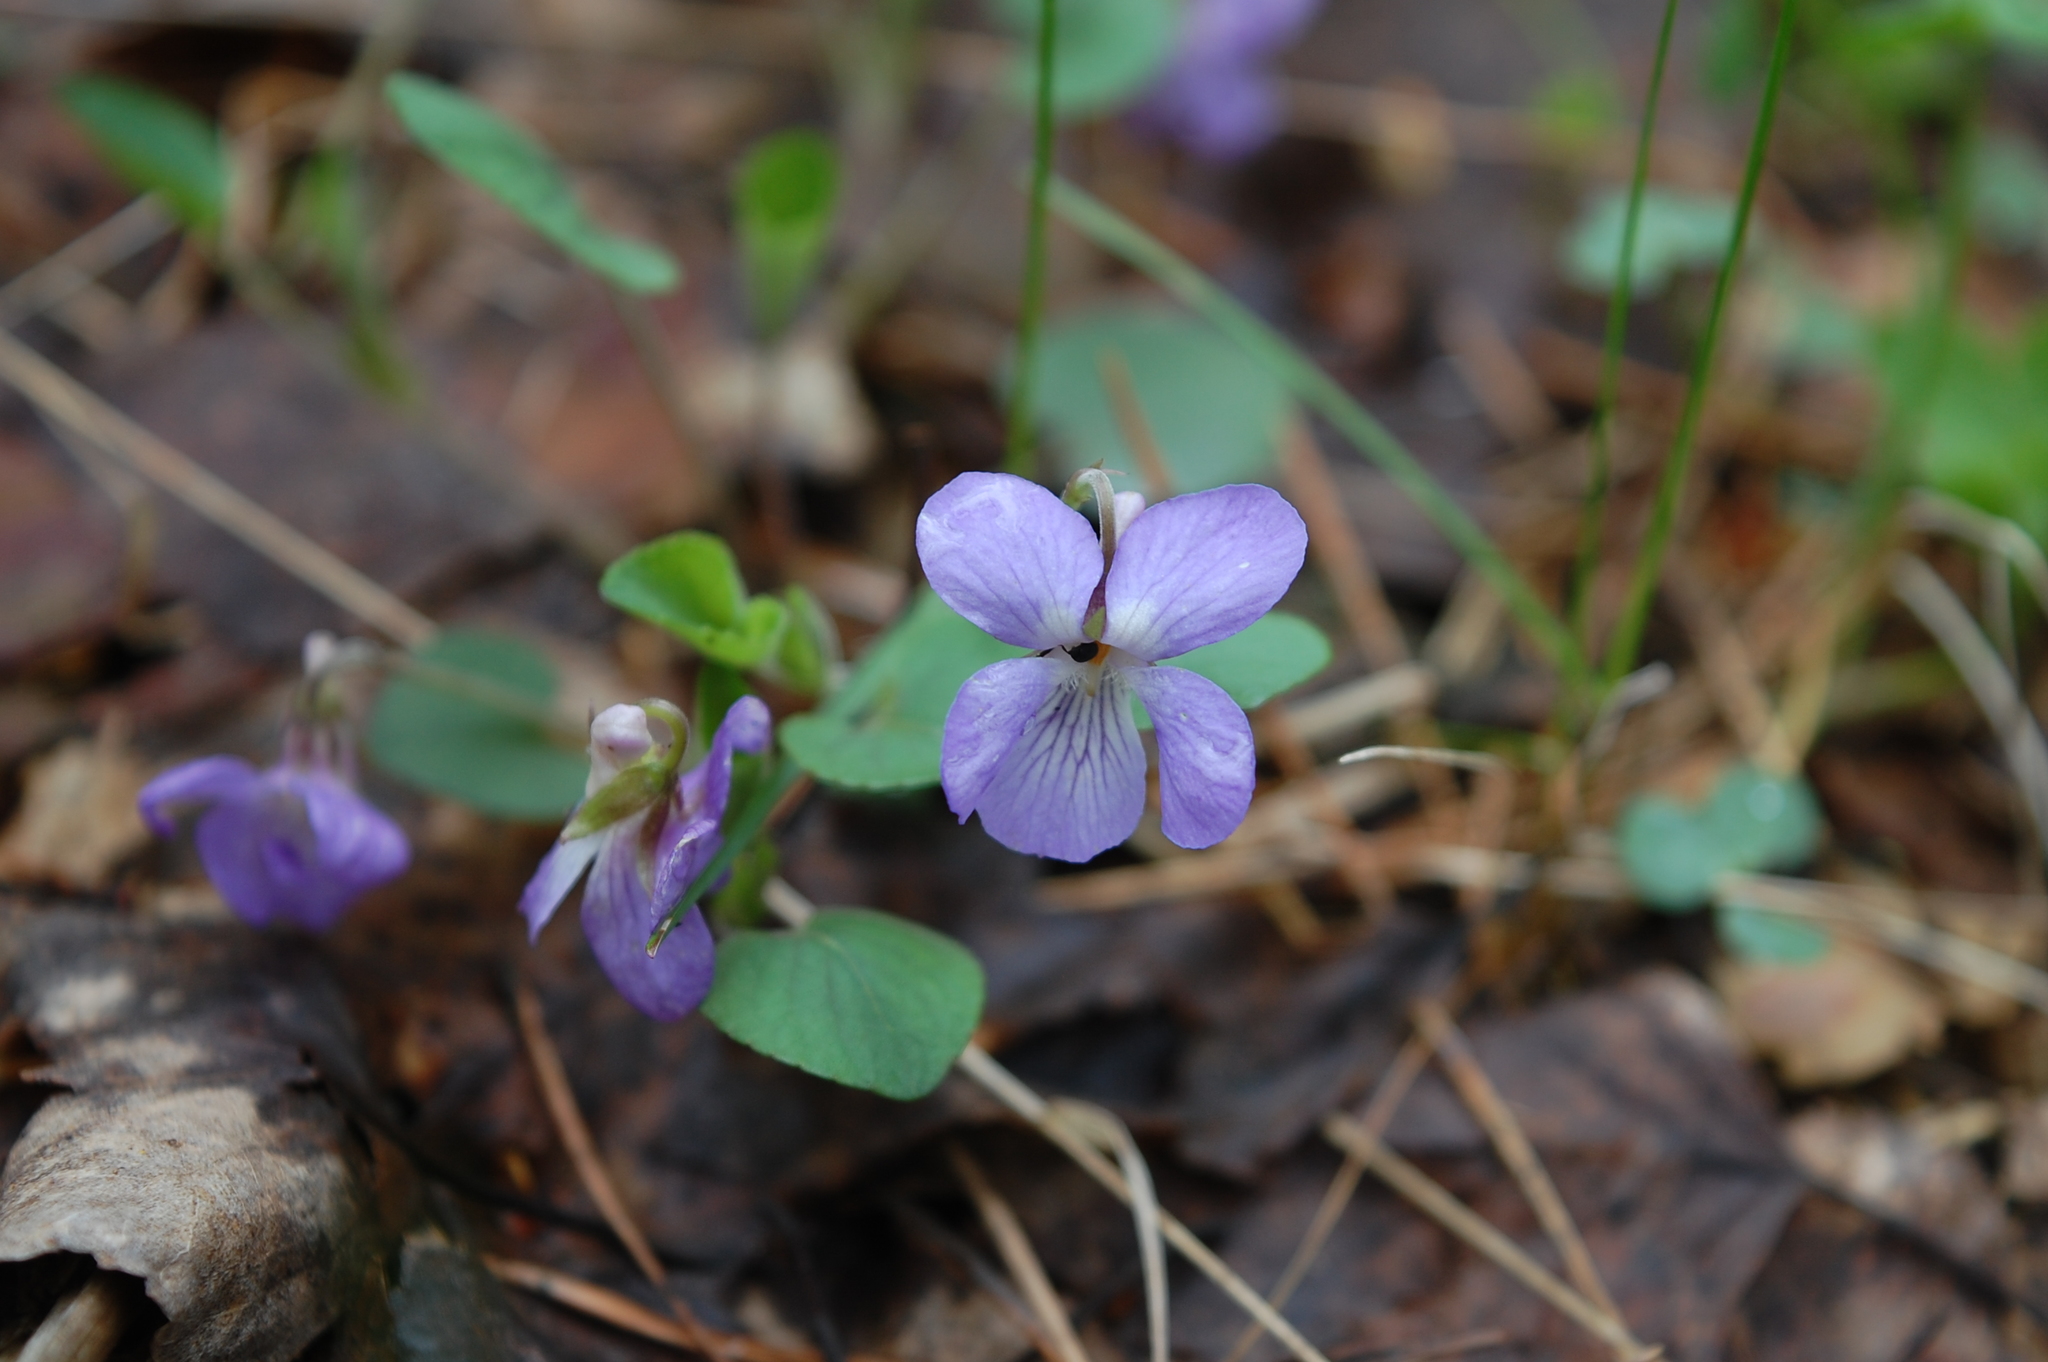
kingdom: Plantae
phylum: Tracheophyta
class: Magnoliopsida
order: Malpighiales
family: Violaceae
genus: Viola
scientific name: Viola rupestris
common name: Teesdale violet
